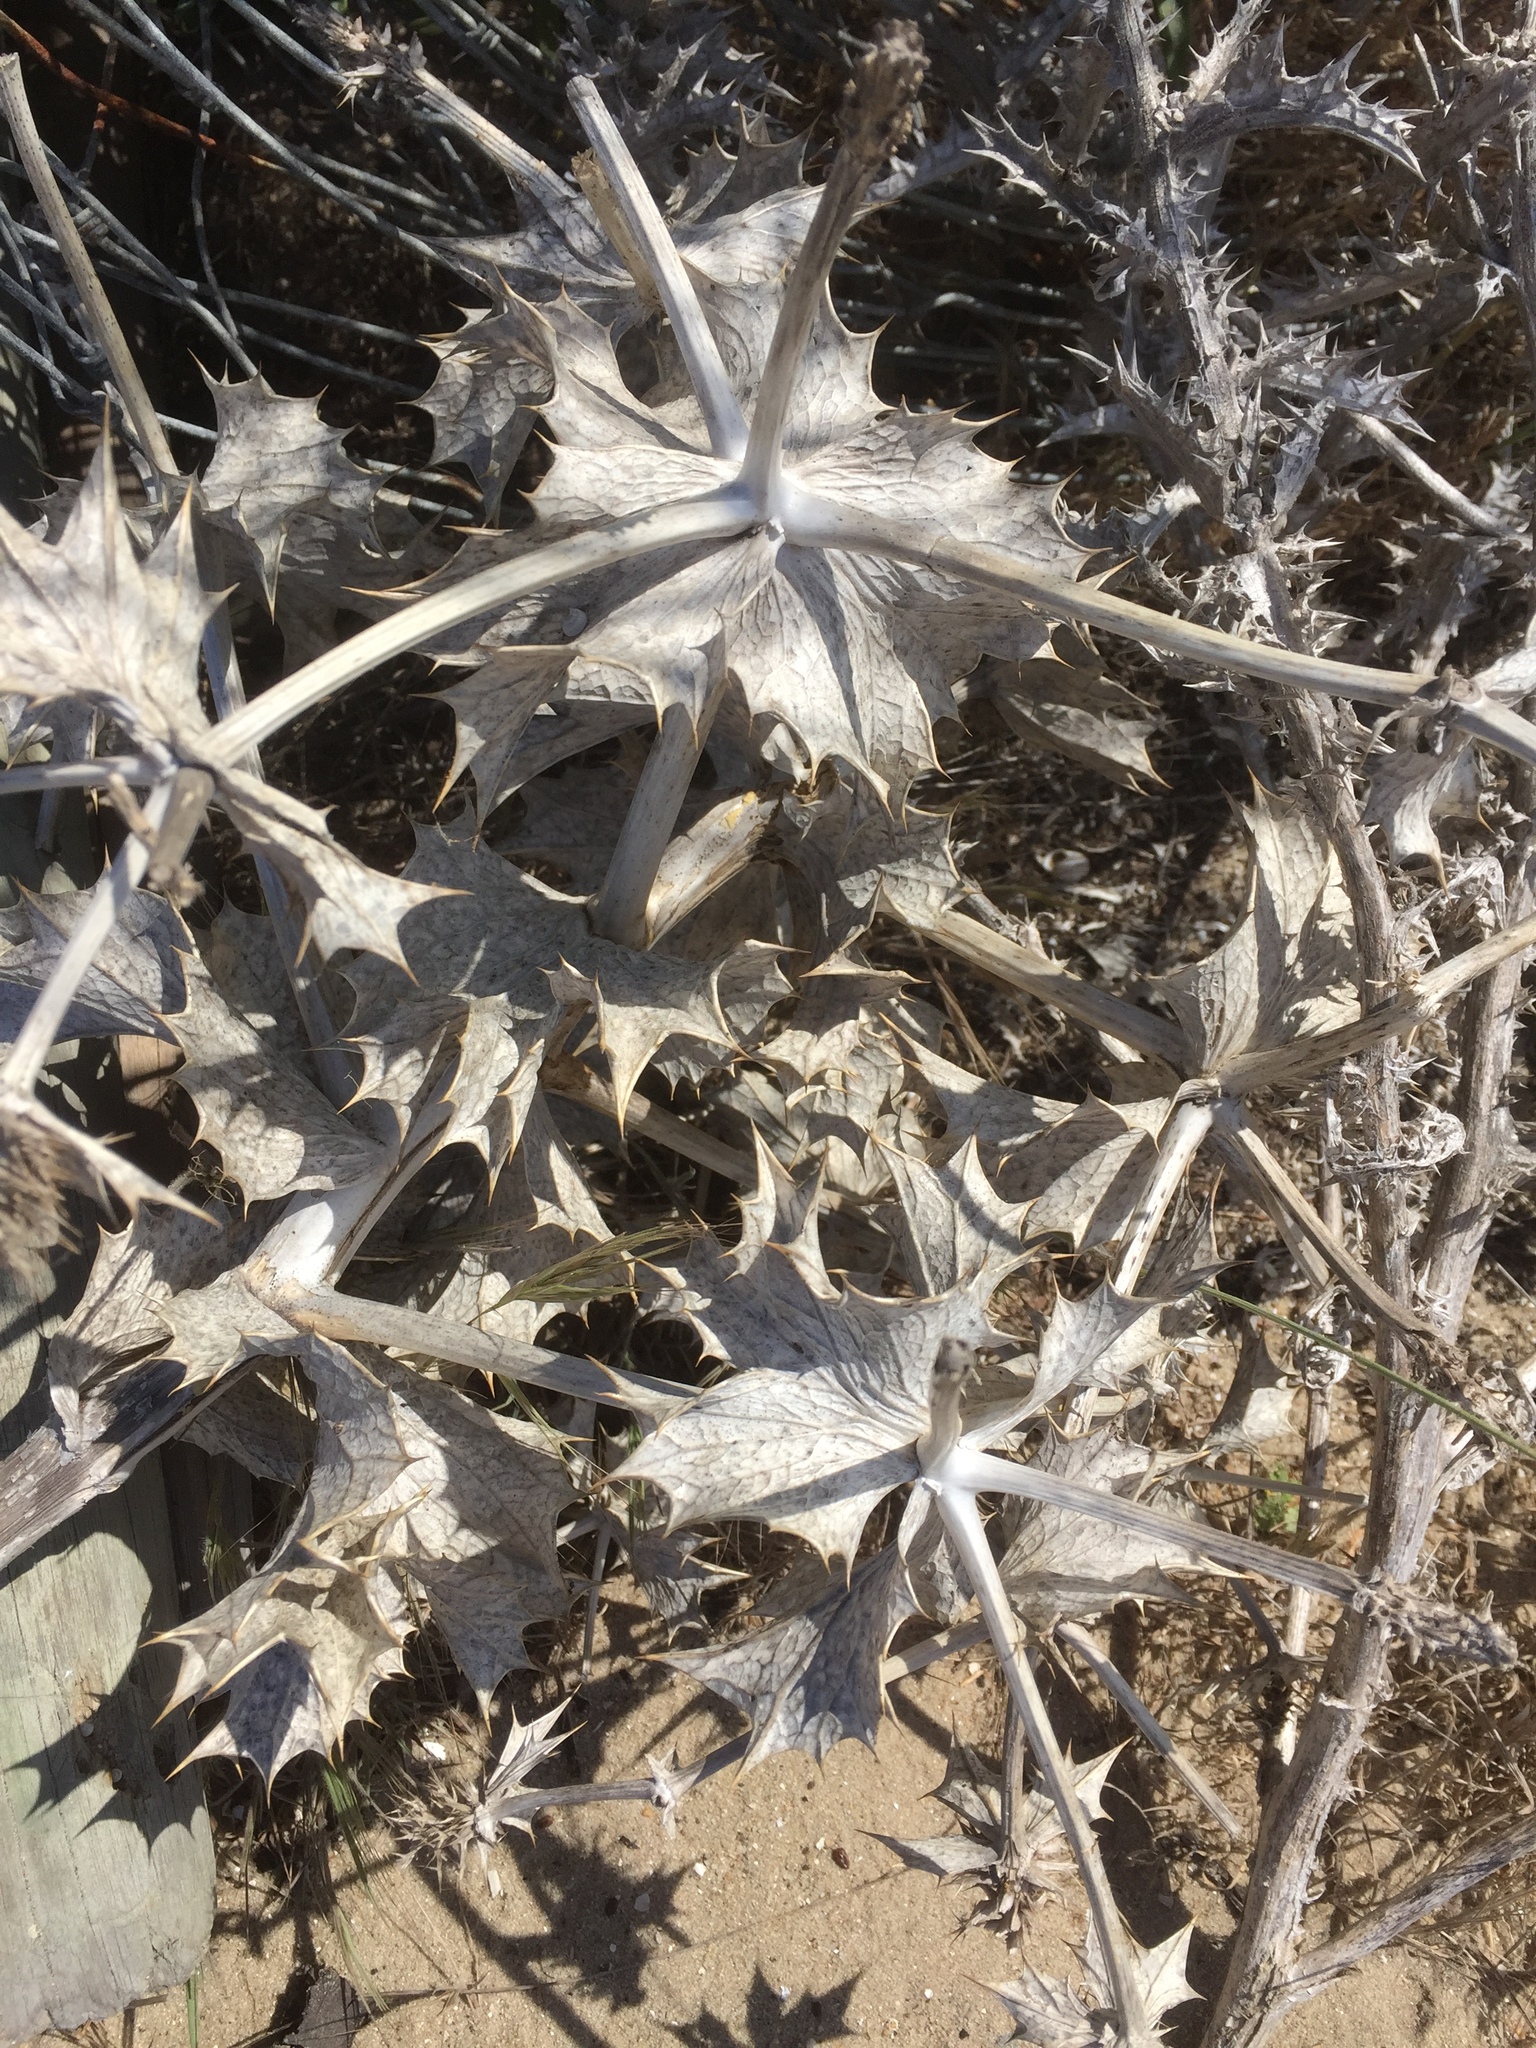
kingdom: Plantae
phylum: Tracheophyta
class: Magnoliopsida
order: Apiales
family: Apiaceae
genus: Eryngium
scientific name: Eryngium maritimum
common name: Sea-holly
